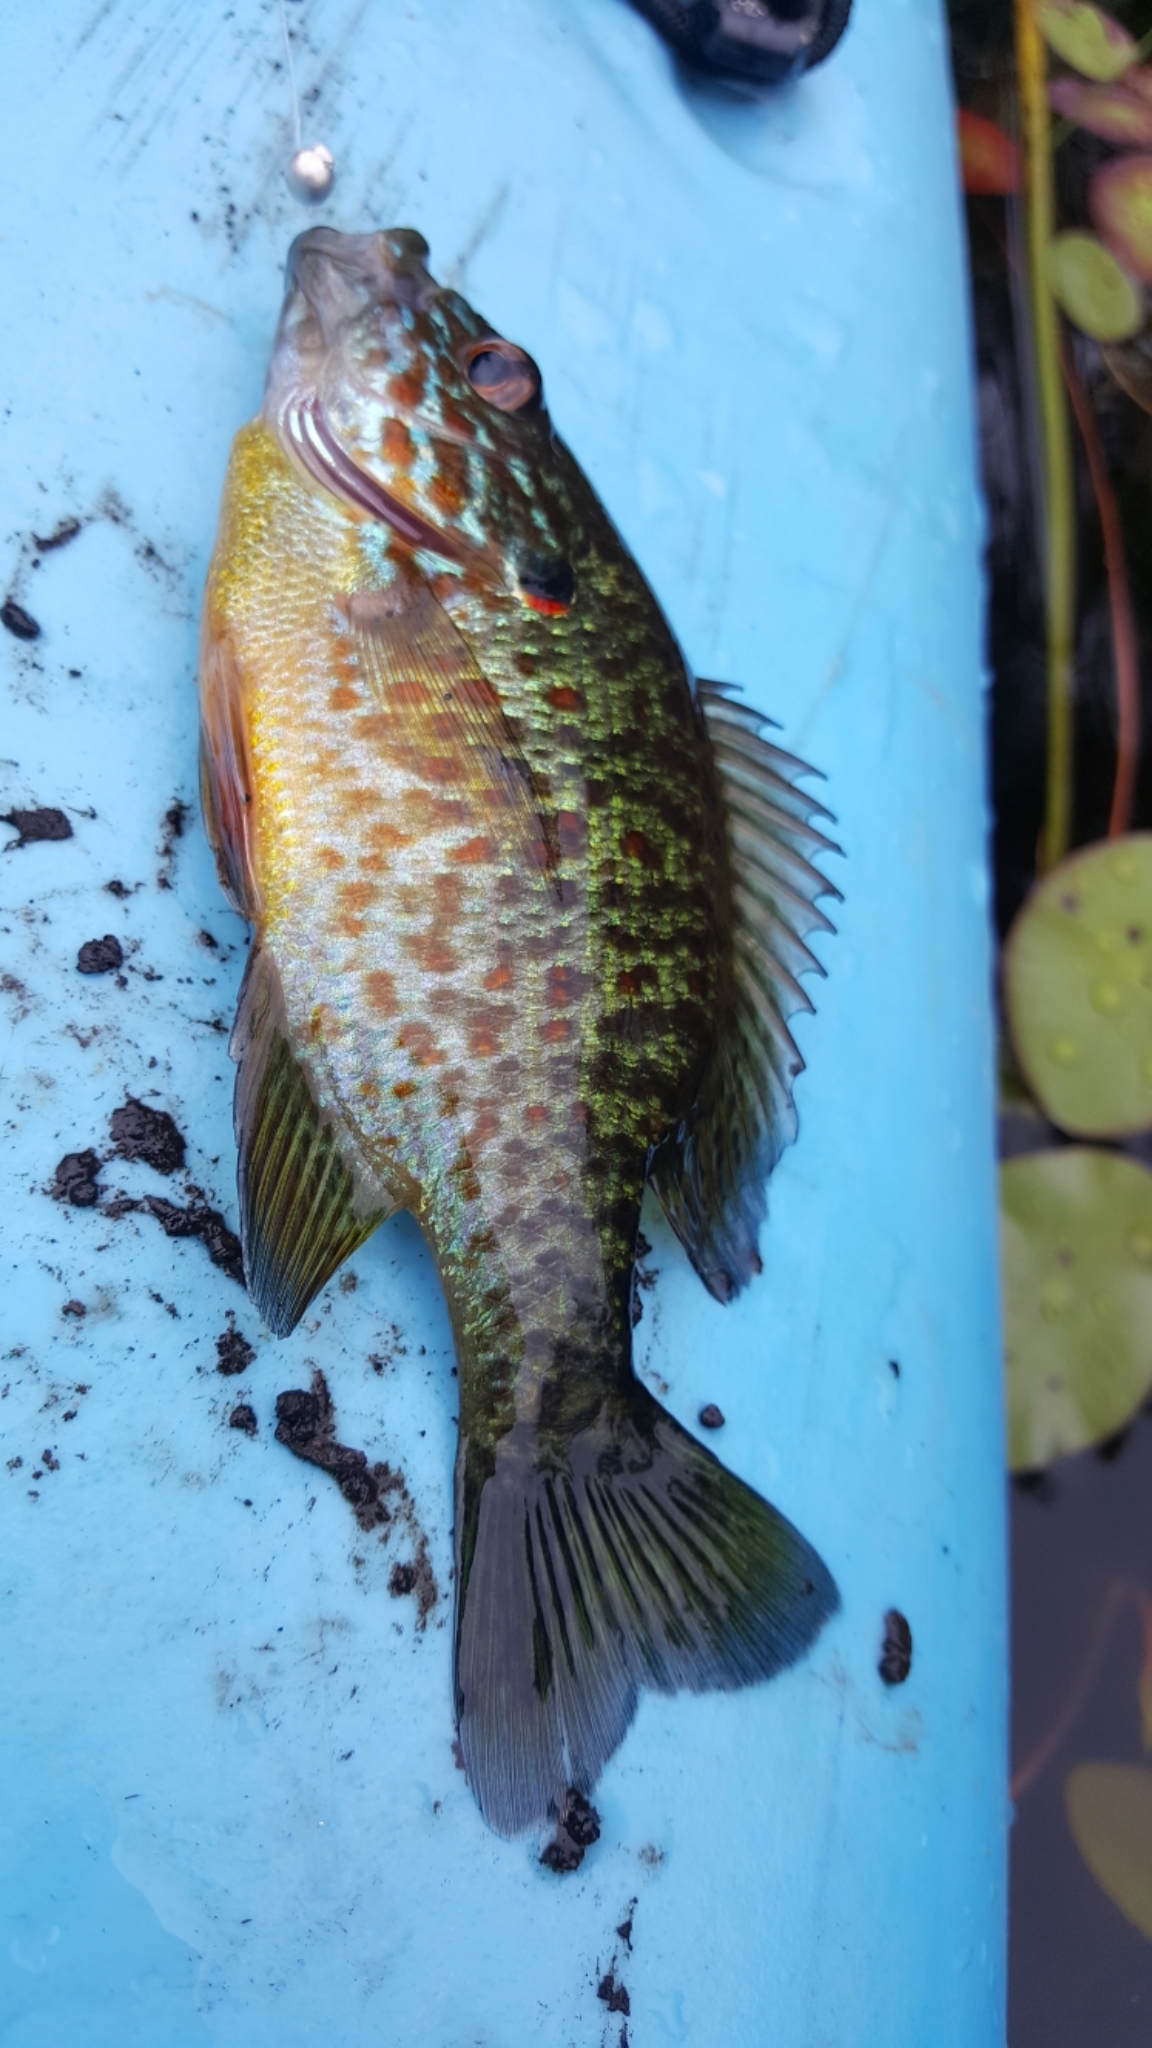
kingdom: Animalia
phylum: Chordata
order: Perciformes
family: Centrarchidae
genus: Lepomis
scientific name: Lepomis gibbosus
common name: Pumpkinseed
